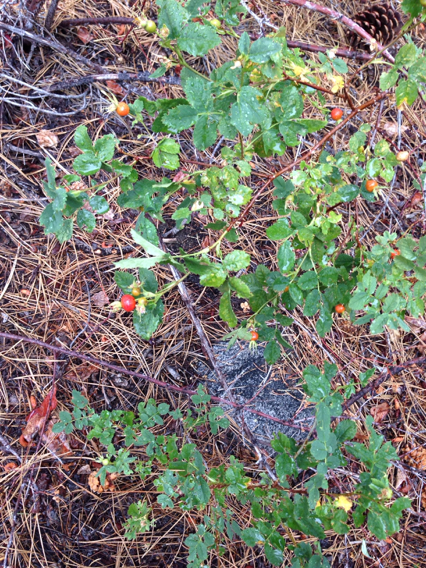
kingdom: Plantae
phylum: Tracheophyta
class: Magnoliopsida
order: Rosales
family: Rosaceae
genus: Rosa
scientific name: Rosa woodsii
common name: Woods's rose
